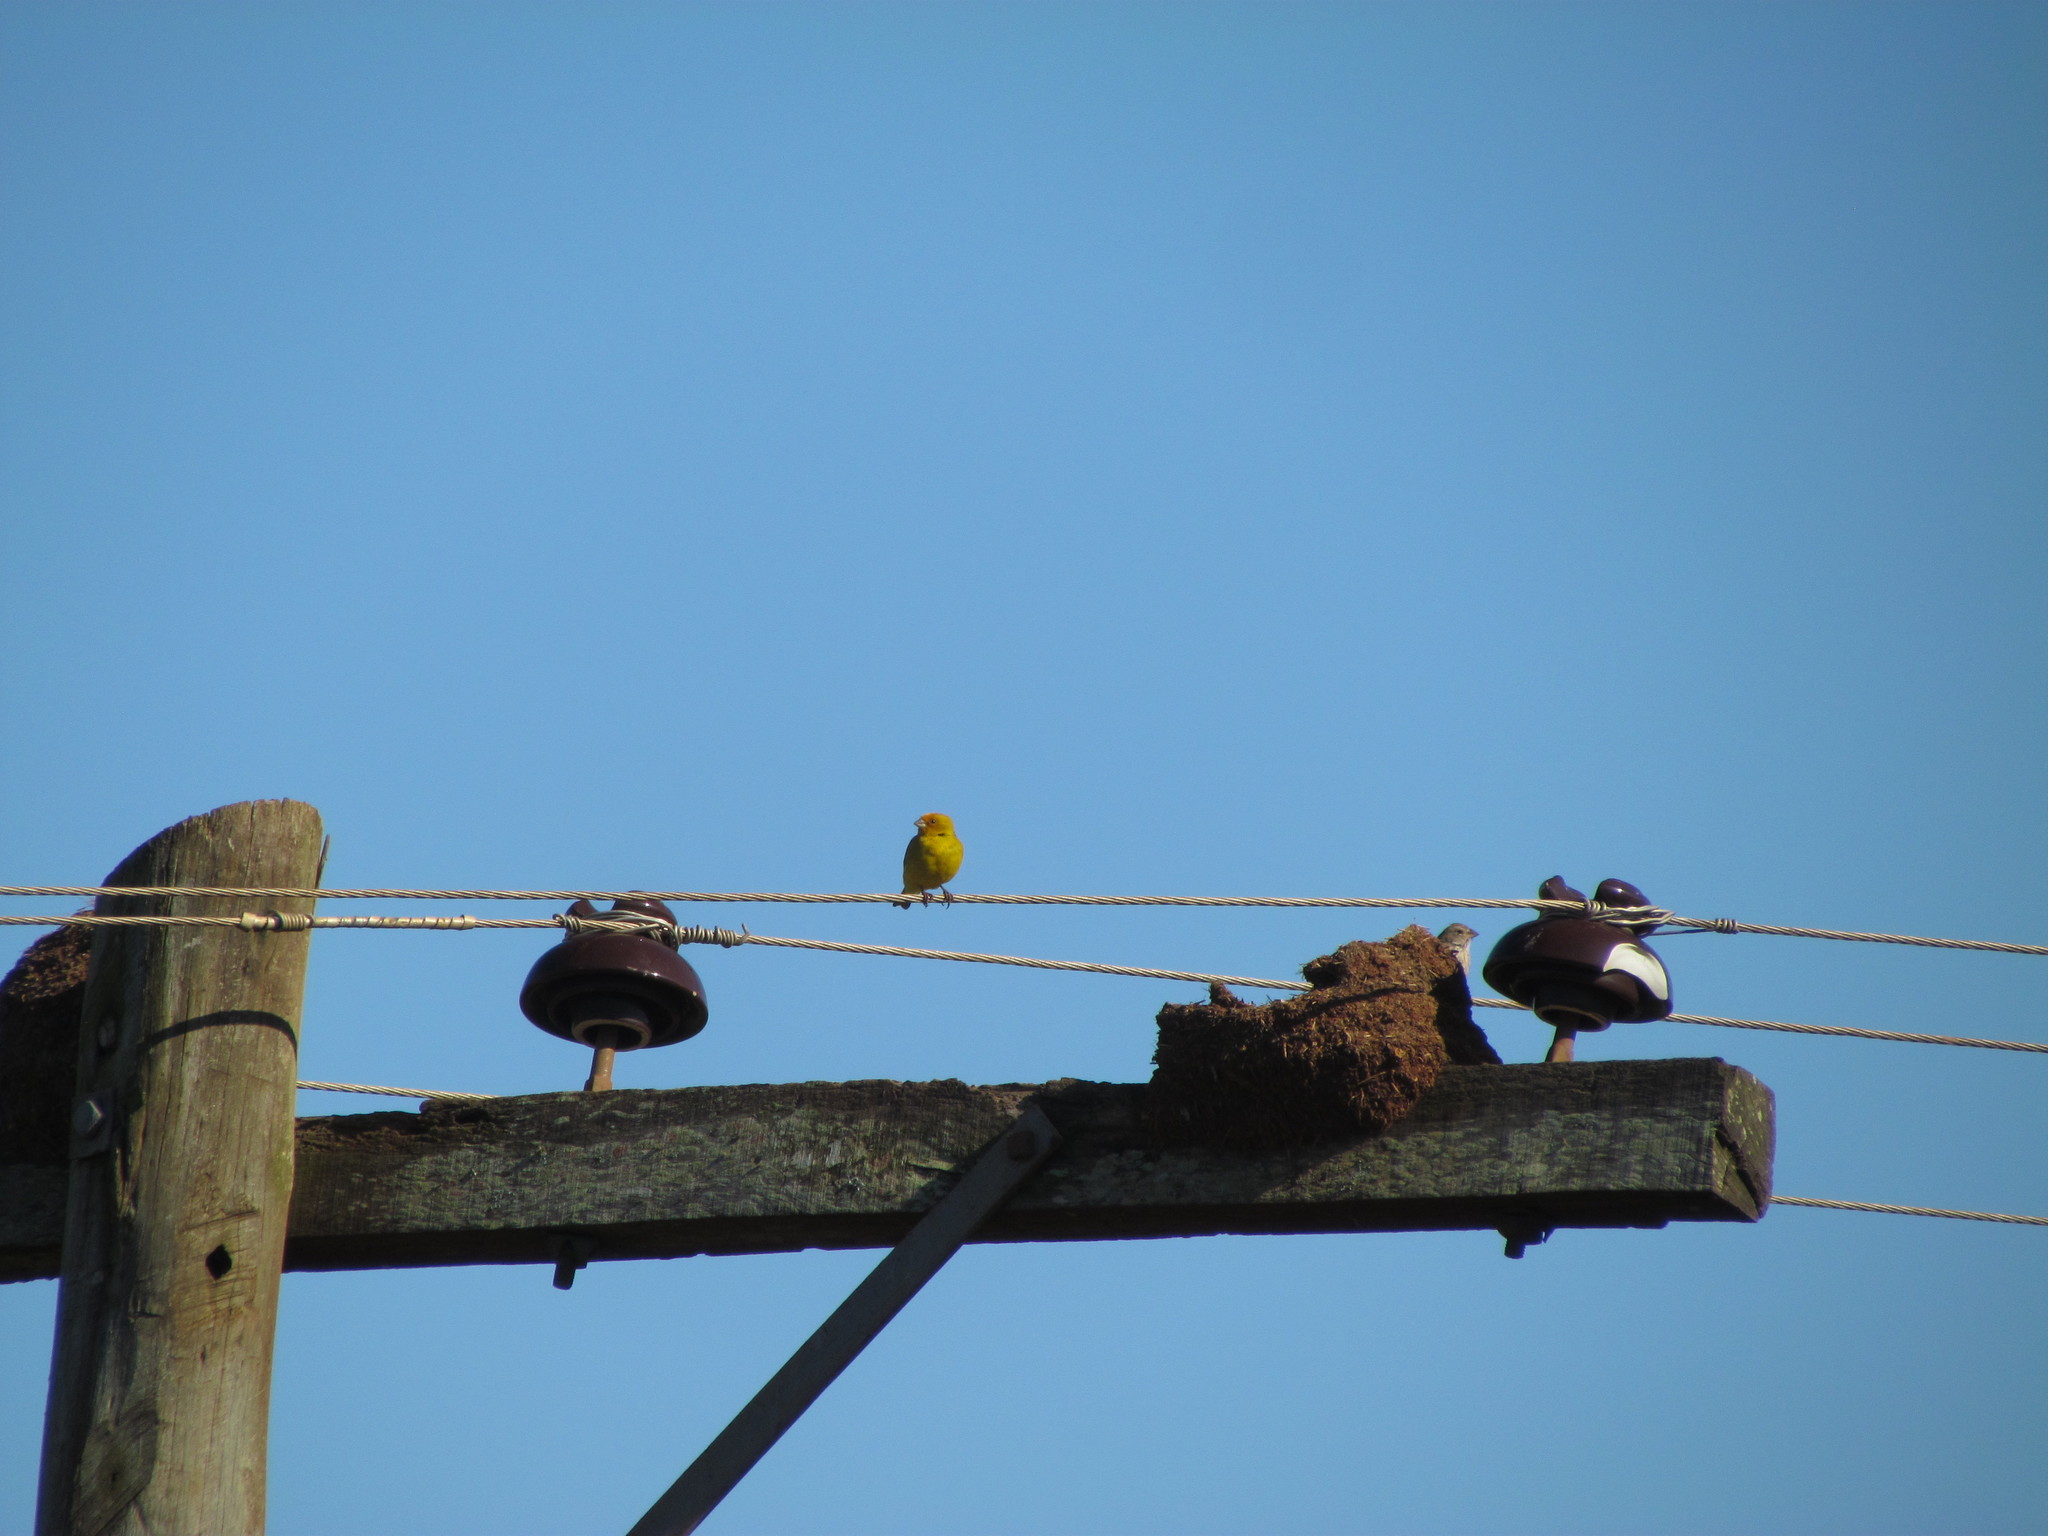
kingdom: Animalia
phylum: Chordata
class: Aves
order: Passeriformes
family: Thraupidae
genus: Sicalis
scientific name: Sicalis flaveola
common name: Saffron finch
